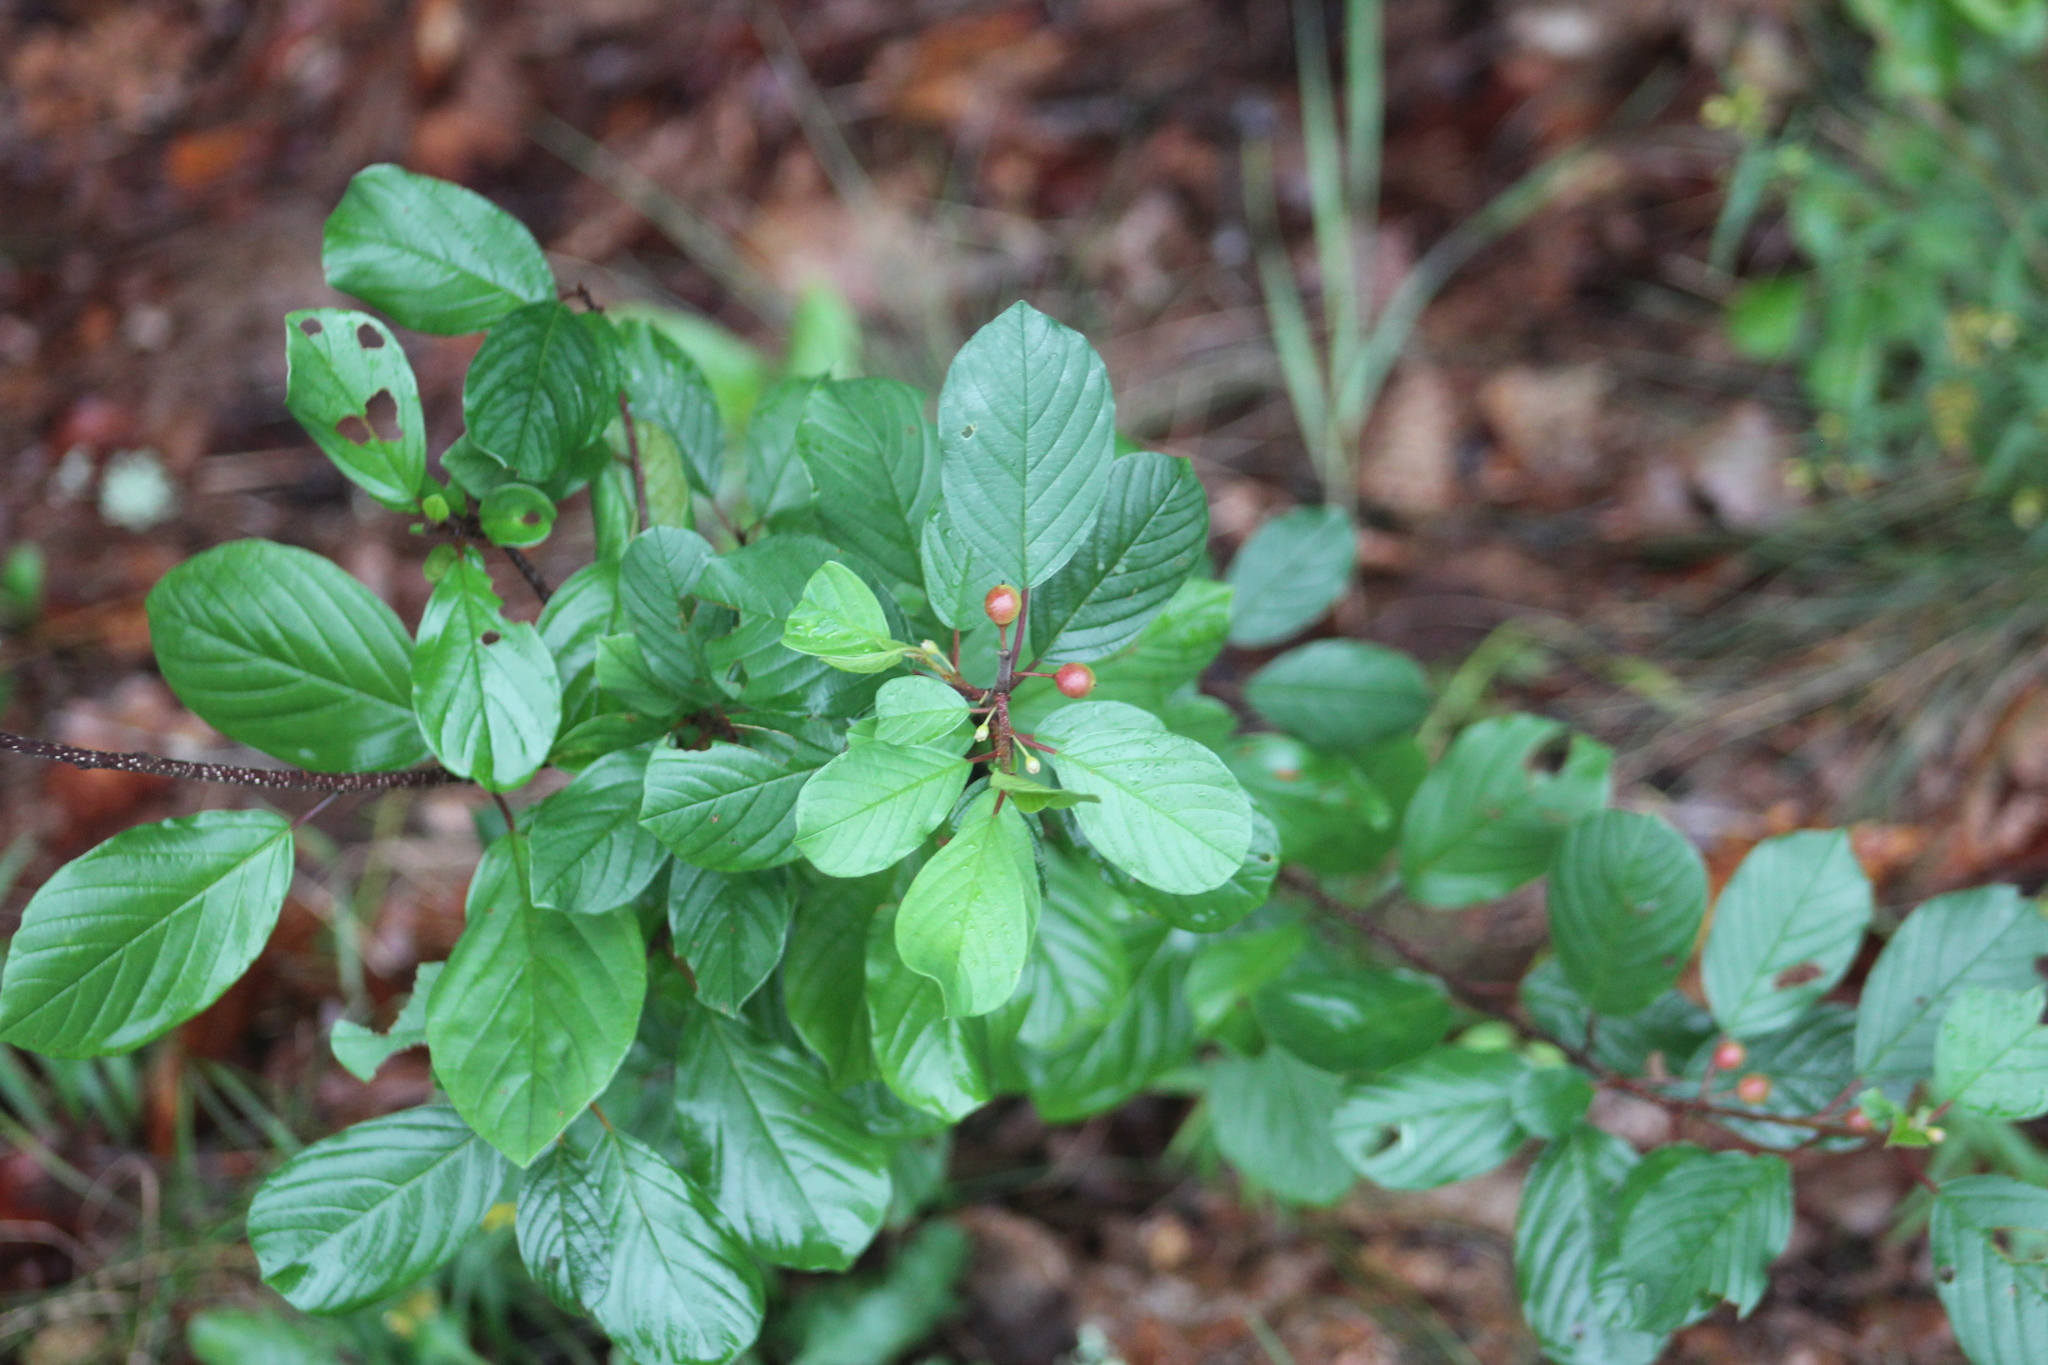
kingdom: Plantae
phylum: Tracheophyta
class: Magnoliopsida
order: Rosales
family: Rhamnaceae
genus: Frangula
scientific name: Frangula alnus
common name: Alder buckthorn
